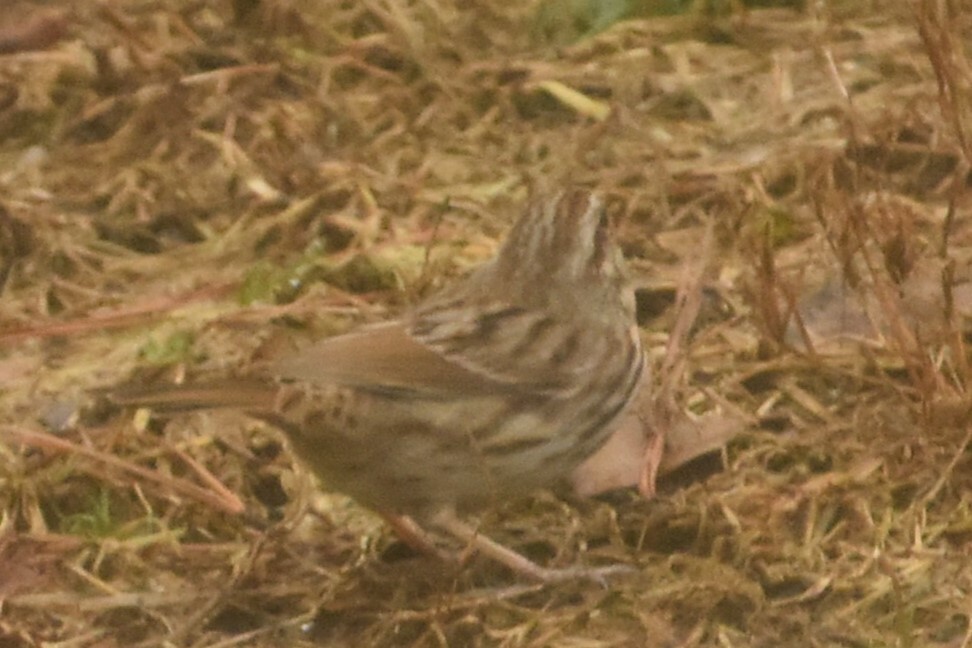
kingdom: Animalia
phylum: Chordata
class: Aves
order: Passeriformes
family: Passerellidae
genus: Melospiza
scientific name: Melospiza melodia
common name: Song sparrow
